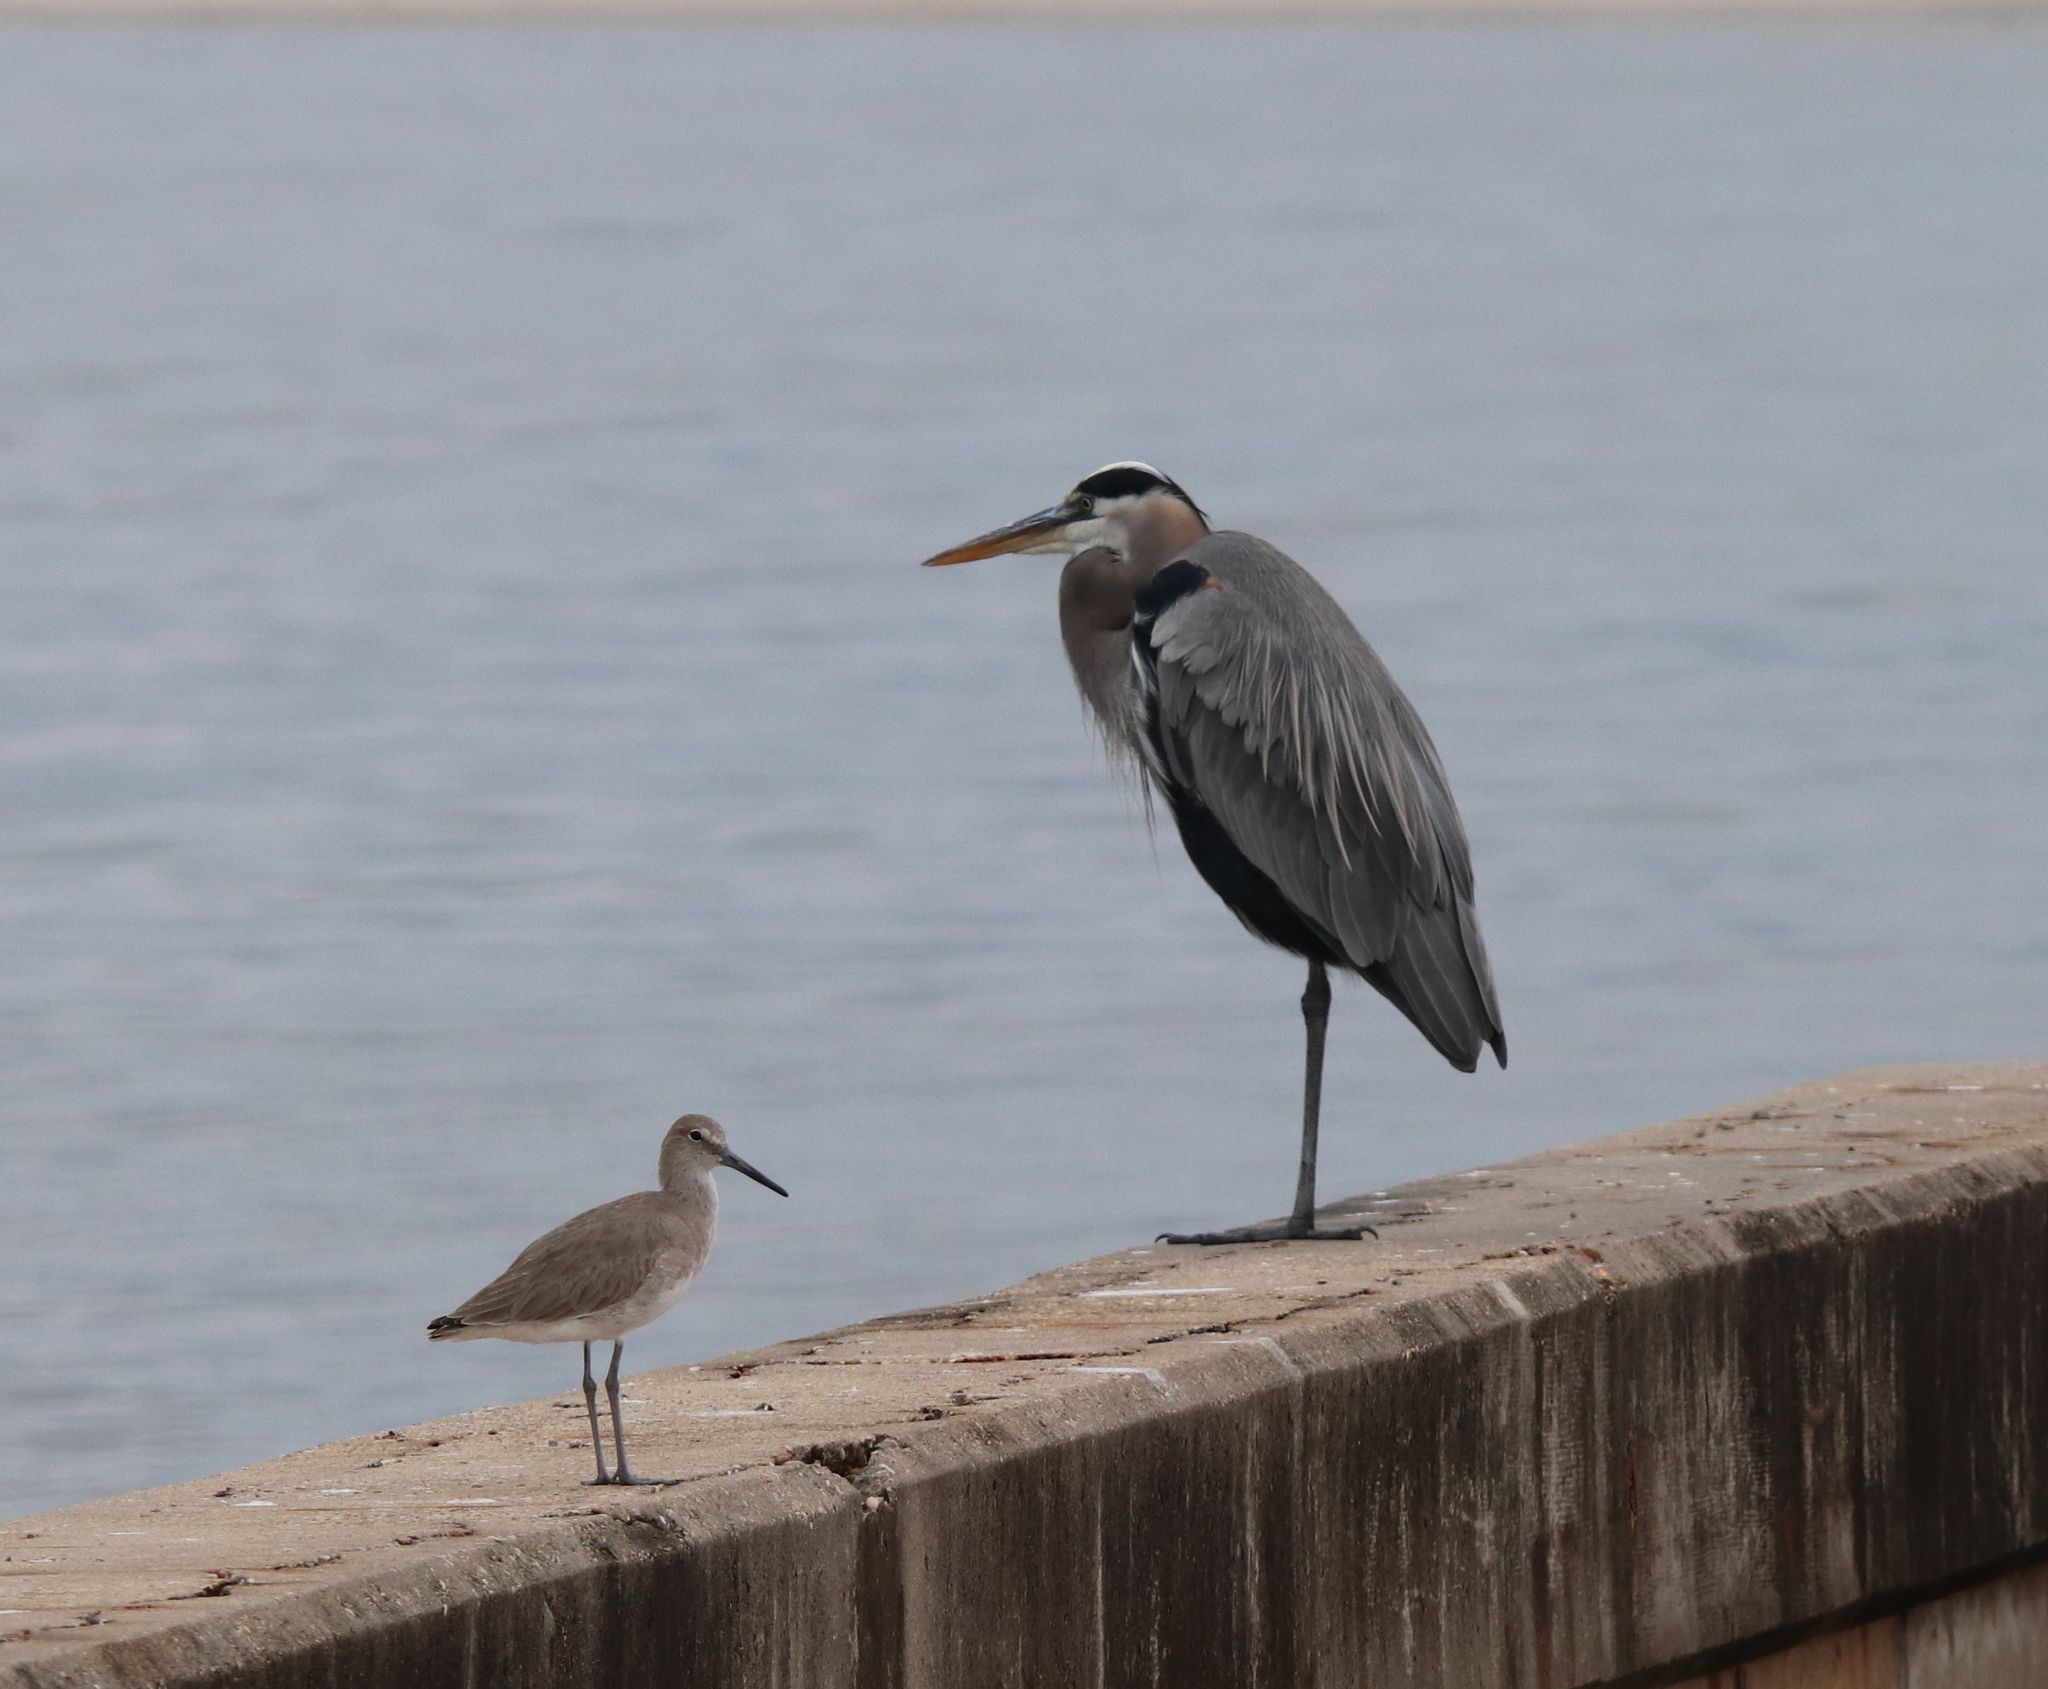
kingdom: Animalia
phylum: Chordata
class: Aves
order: Pelecaniformes
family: Ardeidae
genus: Ardea
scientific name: Ardea herodias
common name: Great blue heron
